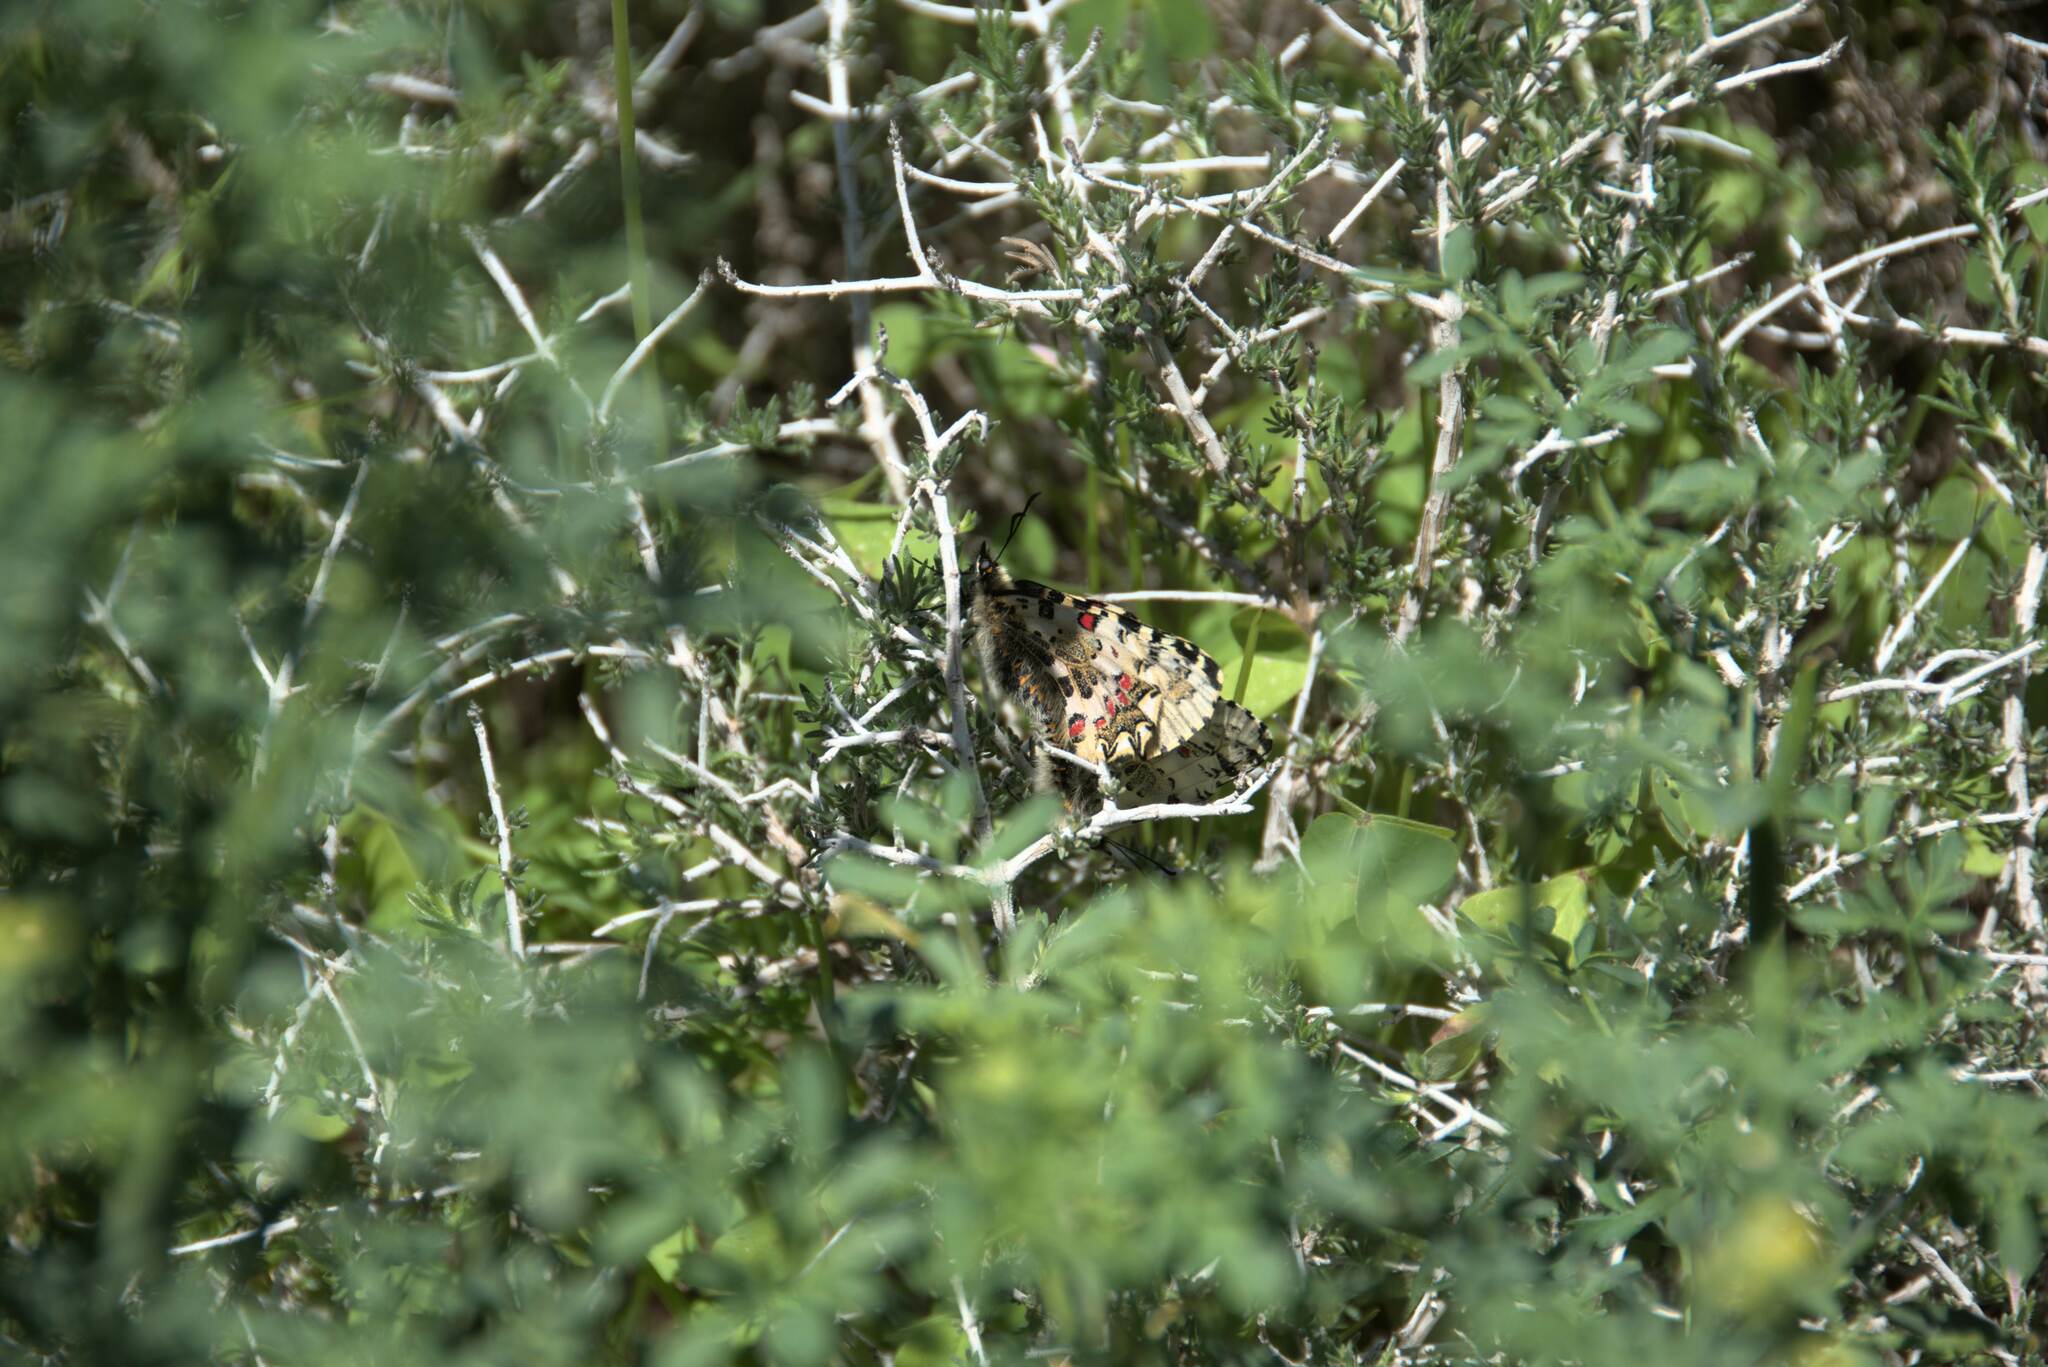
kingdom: Animalia
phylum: Arthropoda
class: Insecta
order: Lepidoptera
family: Papilionidae
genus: Zerynthia
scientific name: Zerynthia cretica
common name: Cretan festoon
